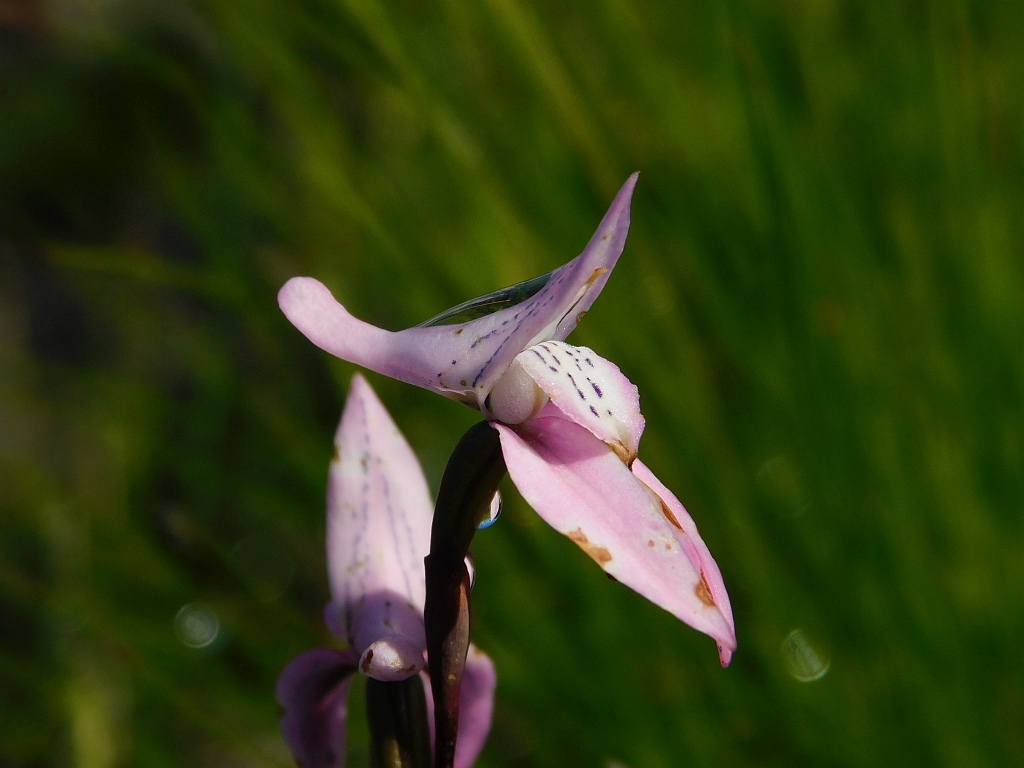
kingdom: Plantae
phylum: Tracheophyta
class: Liliopsida
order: Asparagales
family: Orchidaceae
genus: Disa
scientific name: Disa bifida
